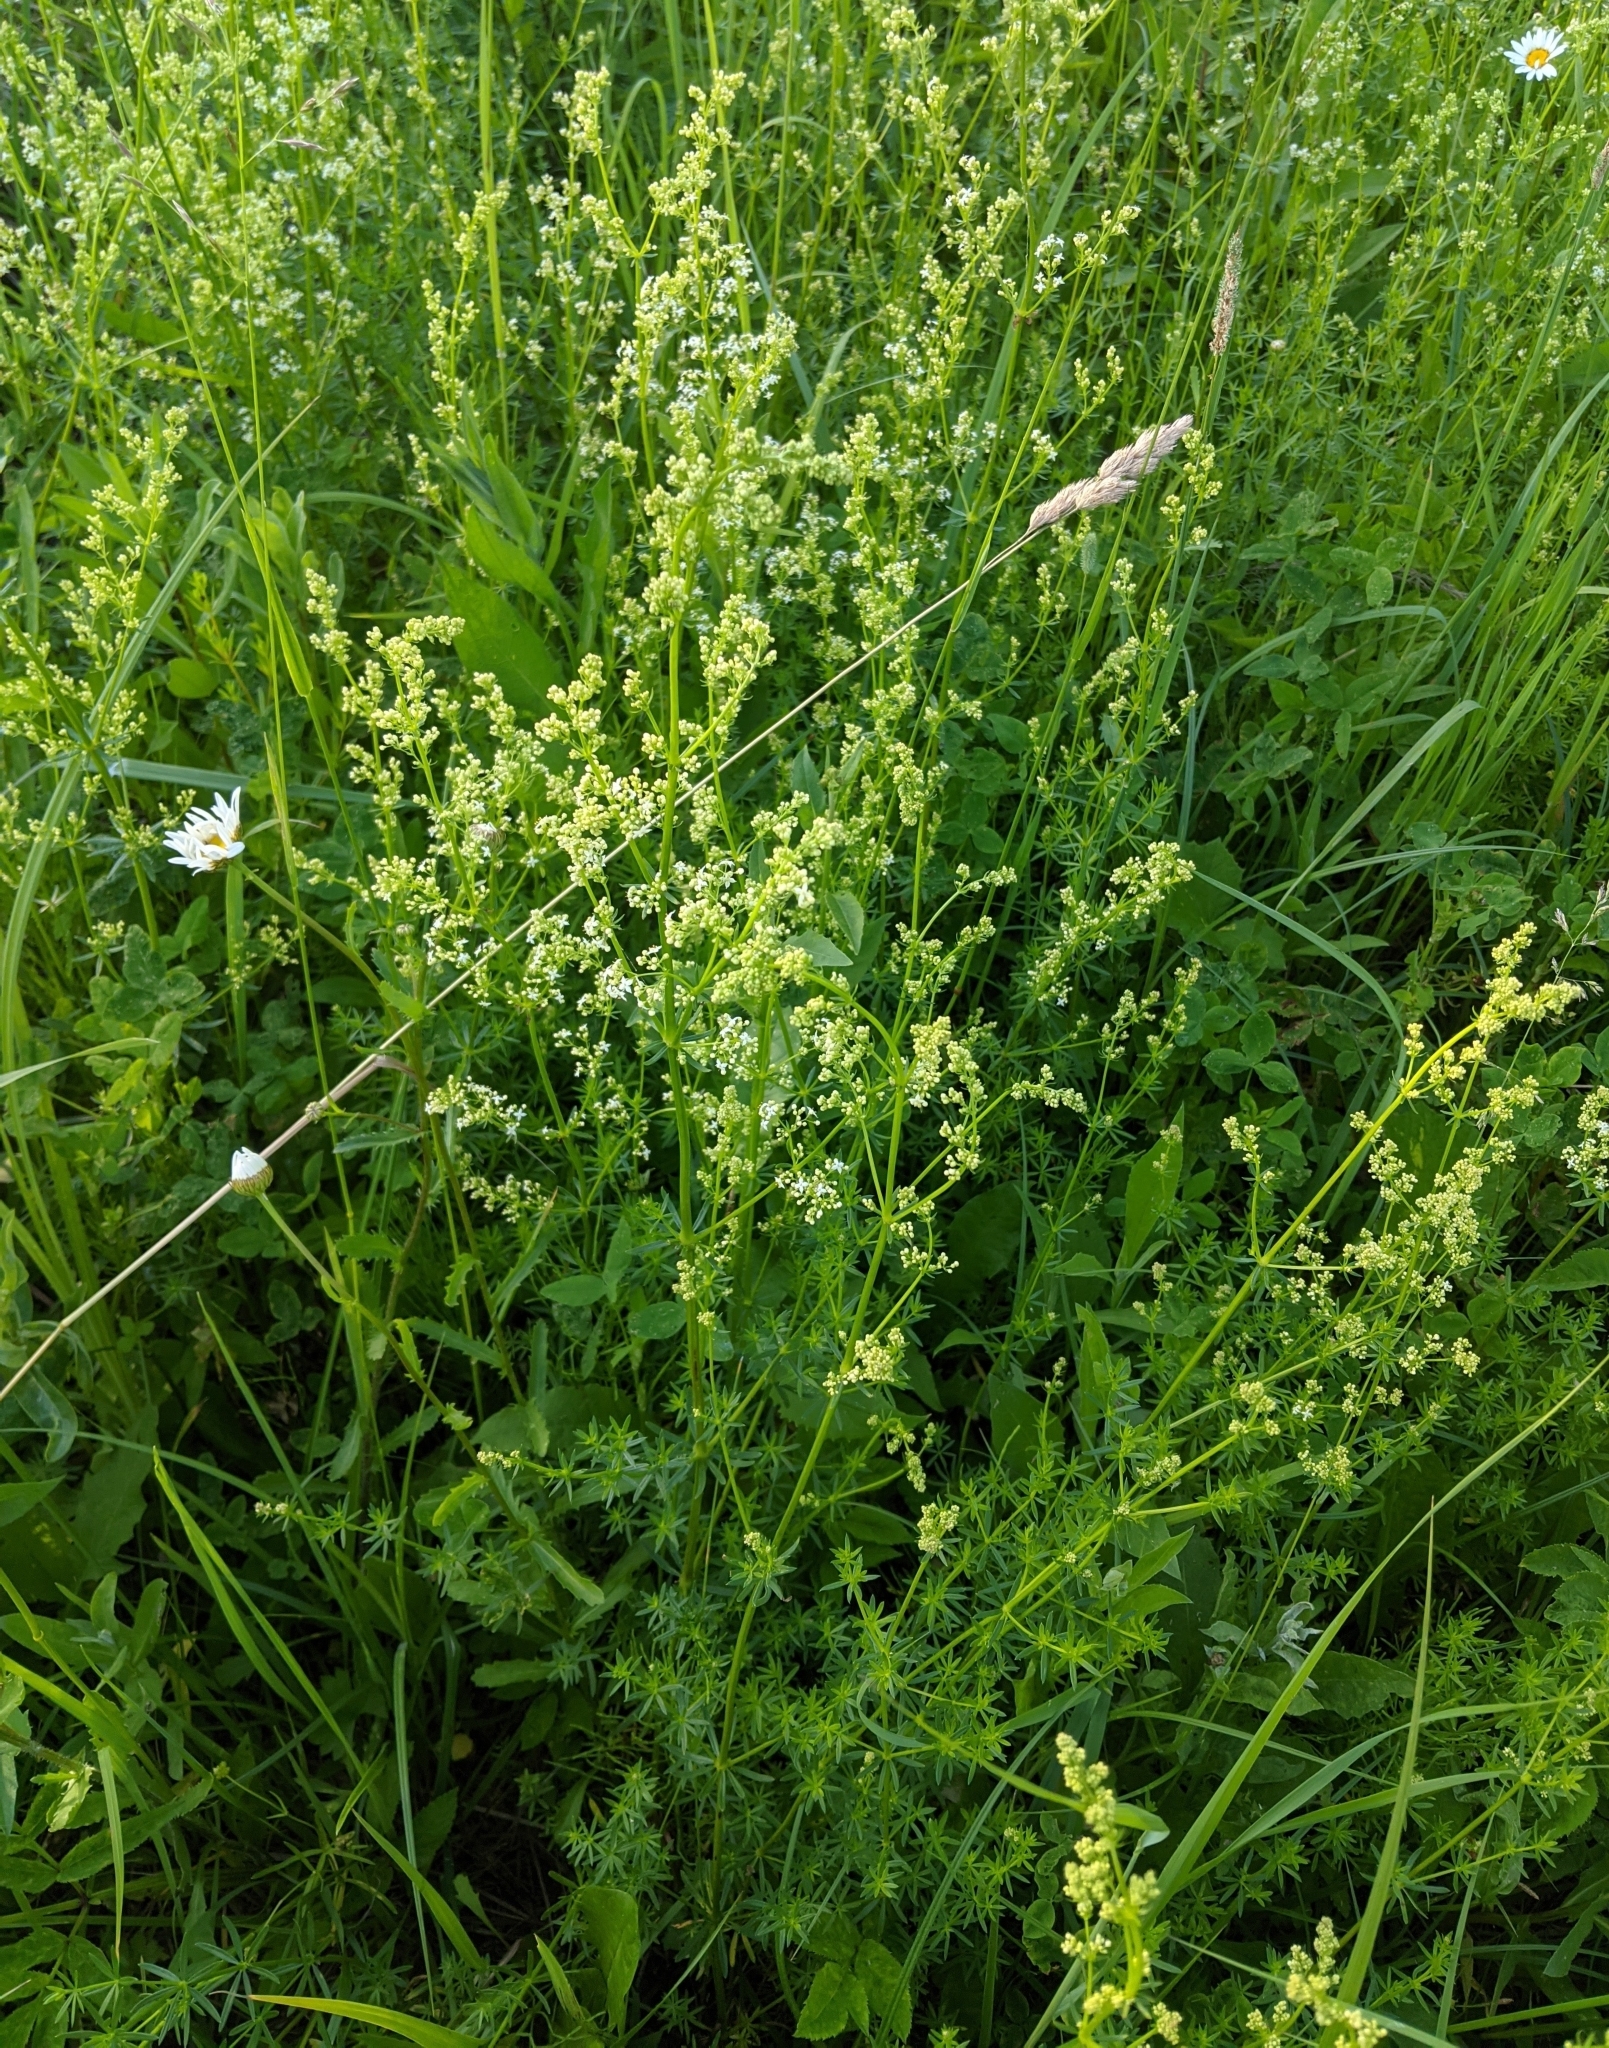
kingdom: Plantae
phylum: Tracheophyta
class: Magnoliopsida
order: Gentianales
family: Rubiaceae
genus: Galium
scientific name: Galium mollugo
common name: Hedge bedstraw
